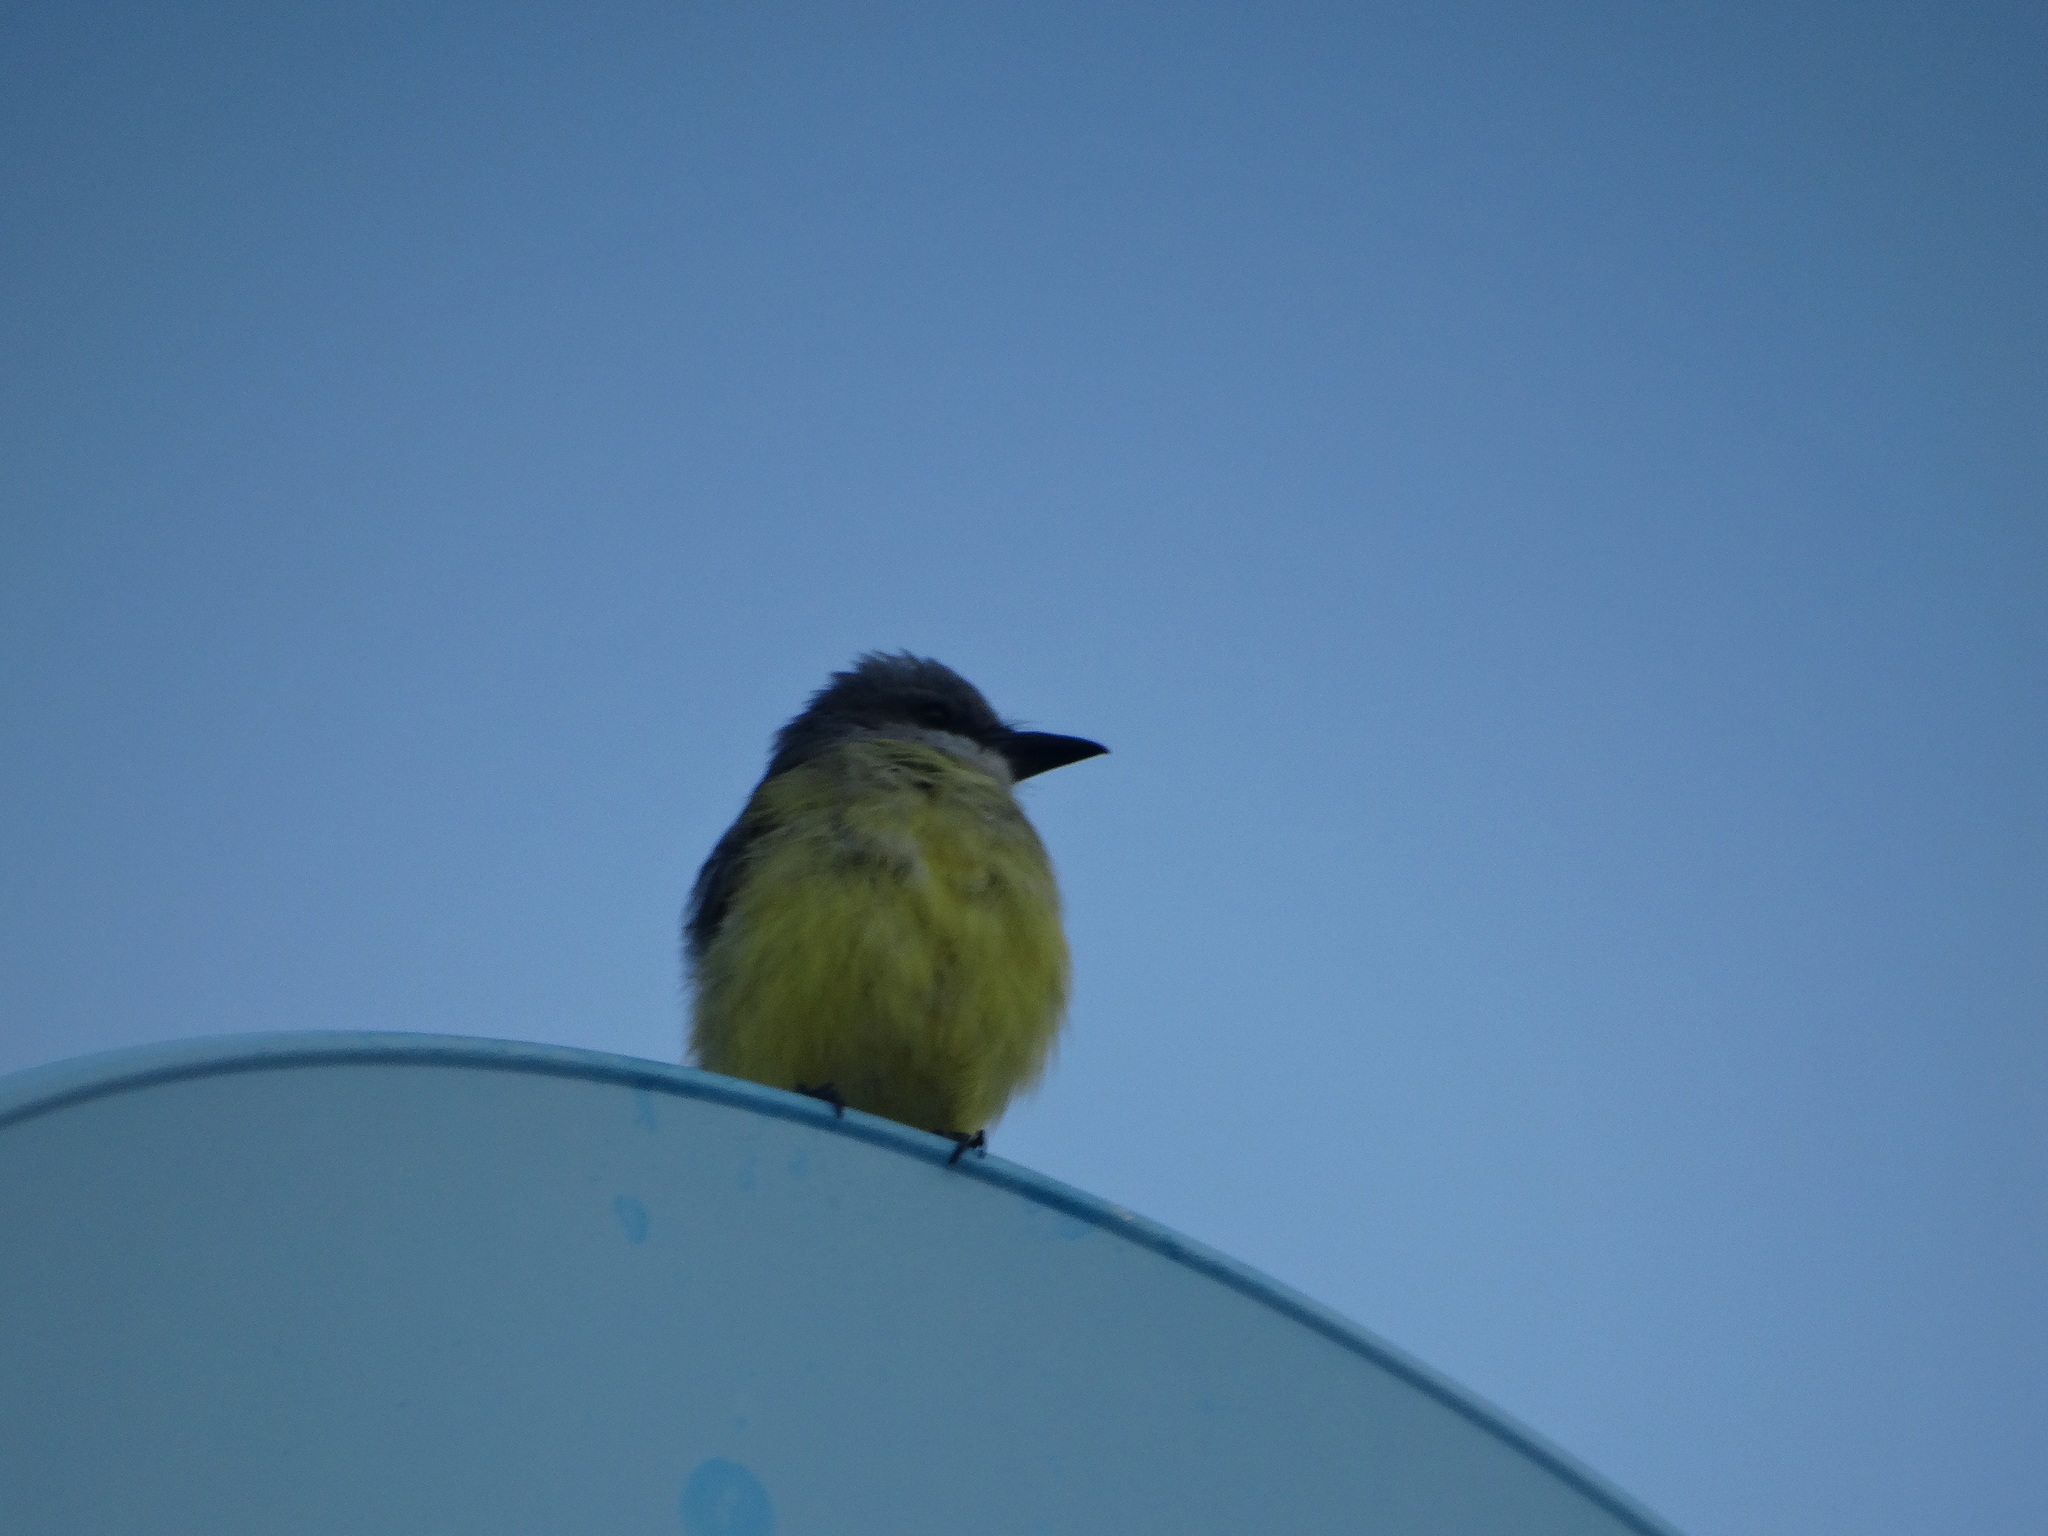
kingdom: Animalia
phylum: Chordata
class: Aves
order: Passeriformes
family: Tyrannidae
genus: Tyrannus
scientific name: Tyrannus vociferans
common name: Cassin's kingbird
